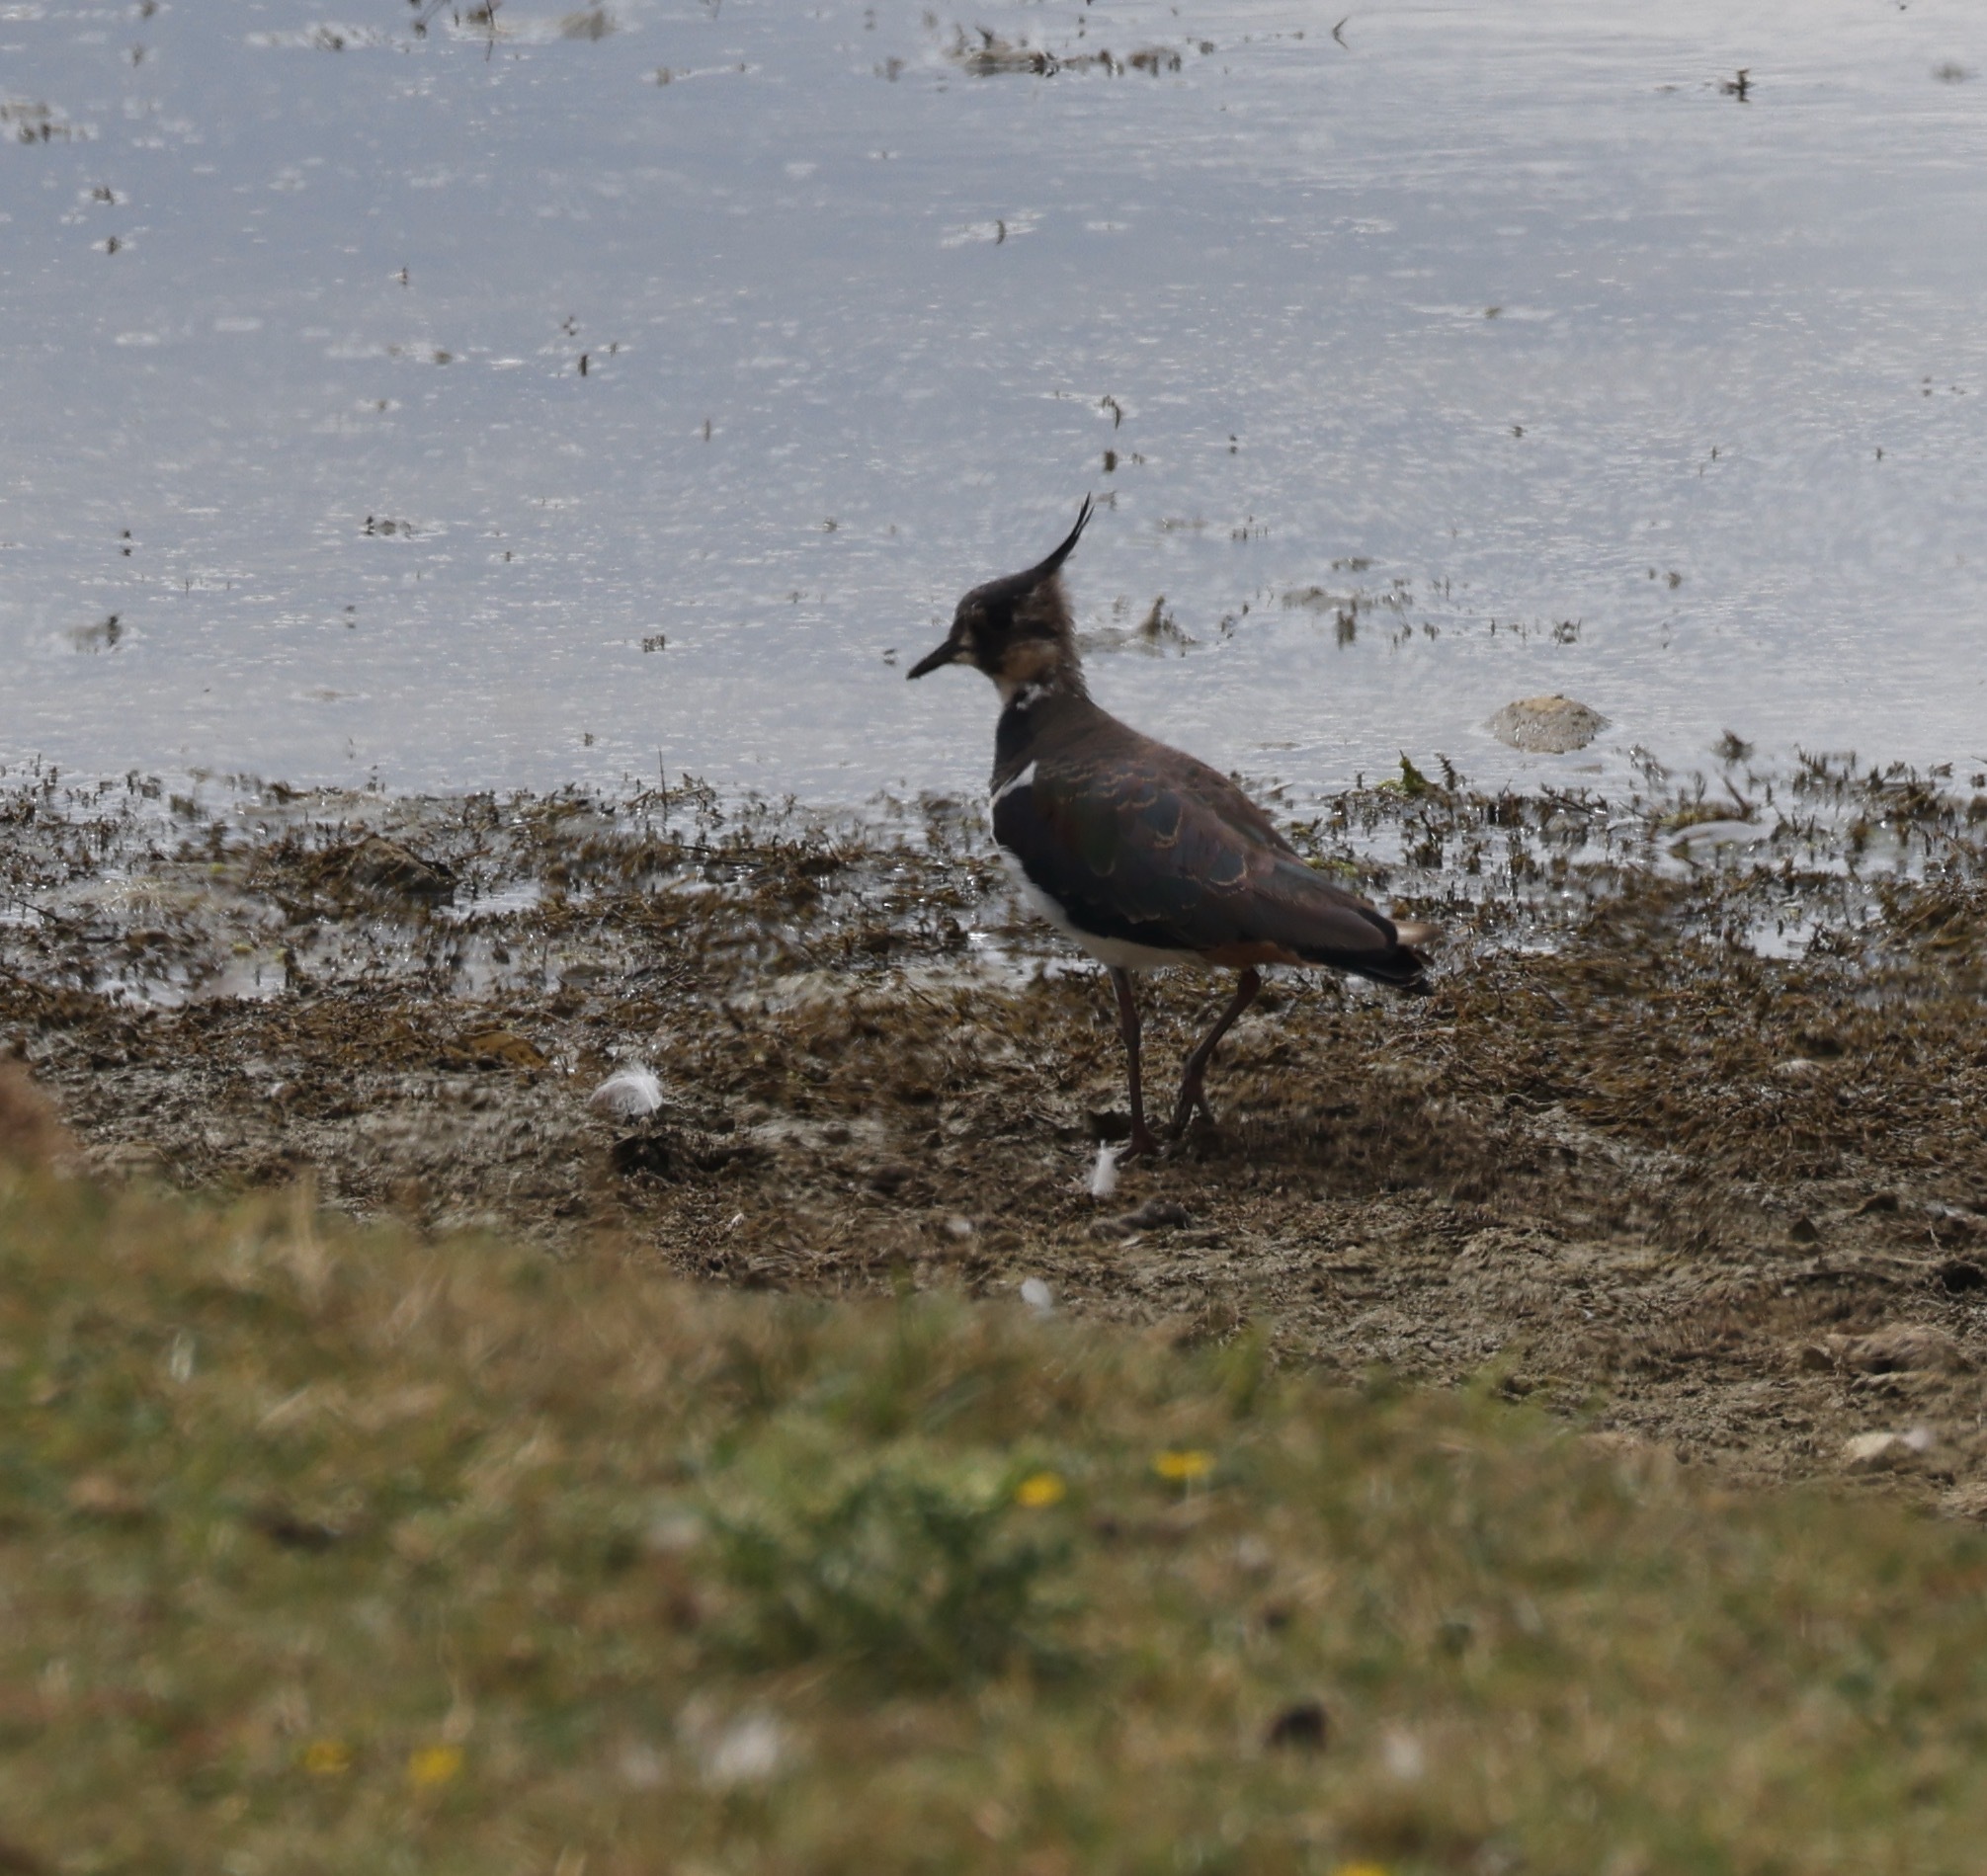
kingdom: Animalia
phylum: Chordata
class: Aves
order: Charadriiformes
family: Charadriidae
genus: Vanellus
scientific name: Vanellus vanellus
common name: Northern lapwing
